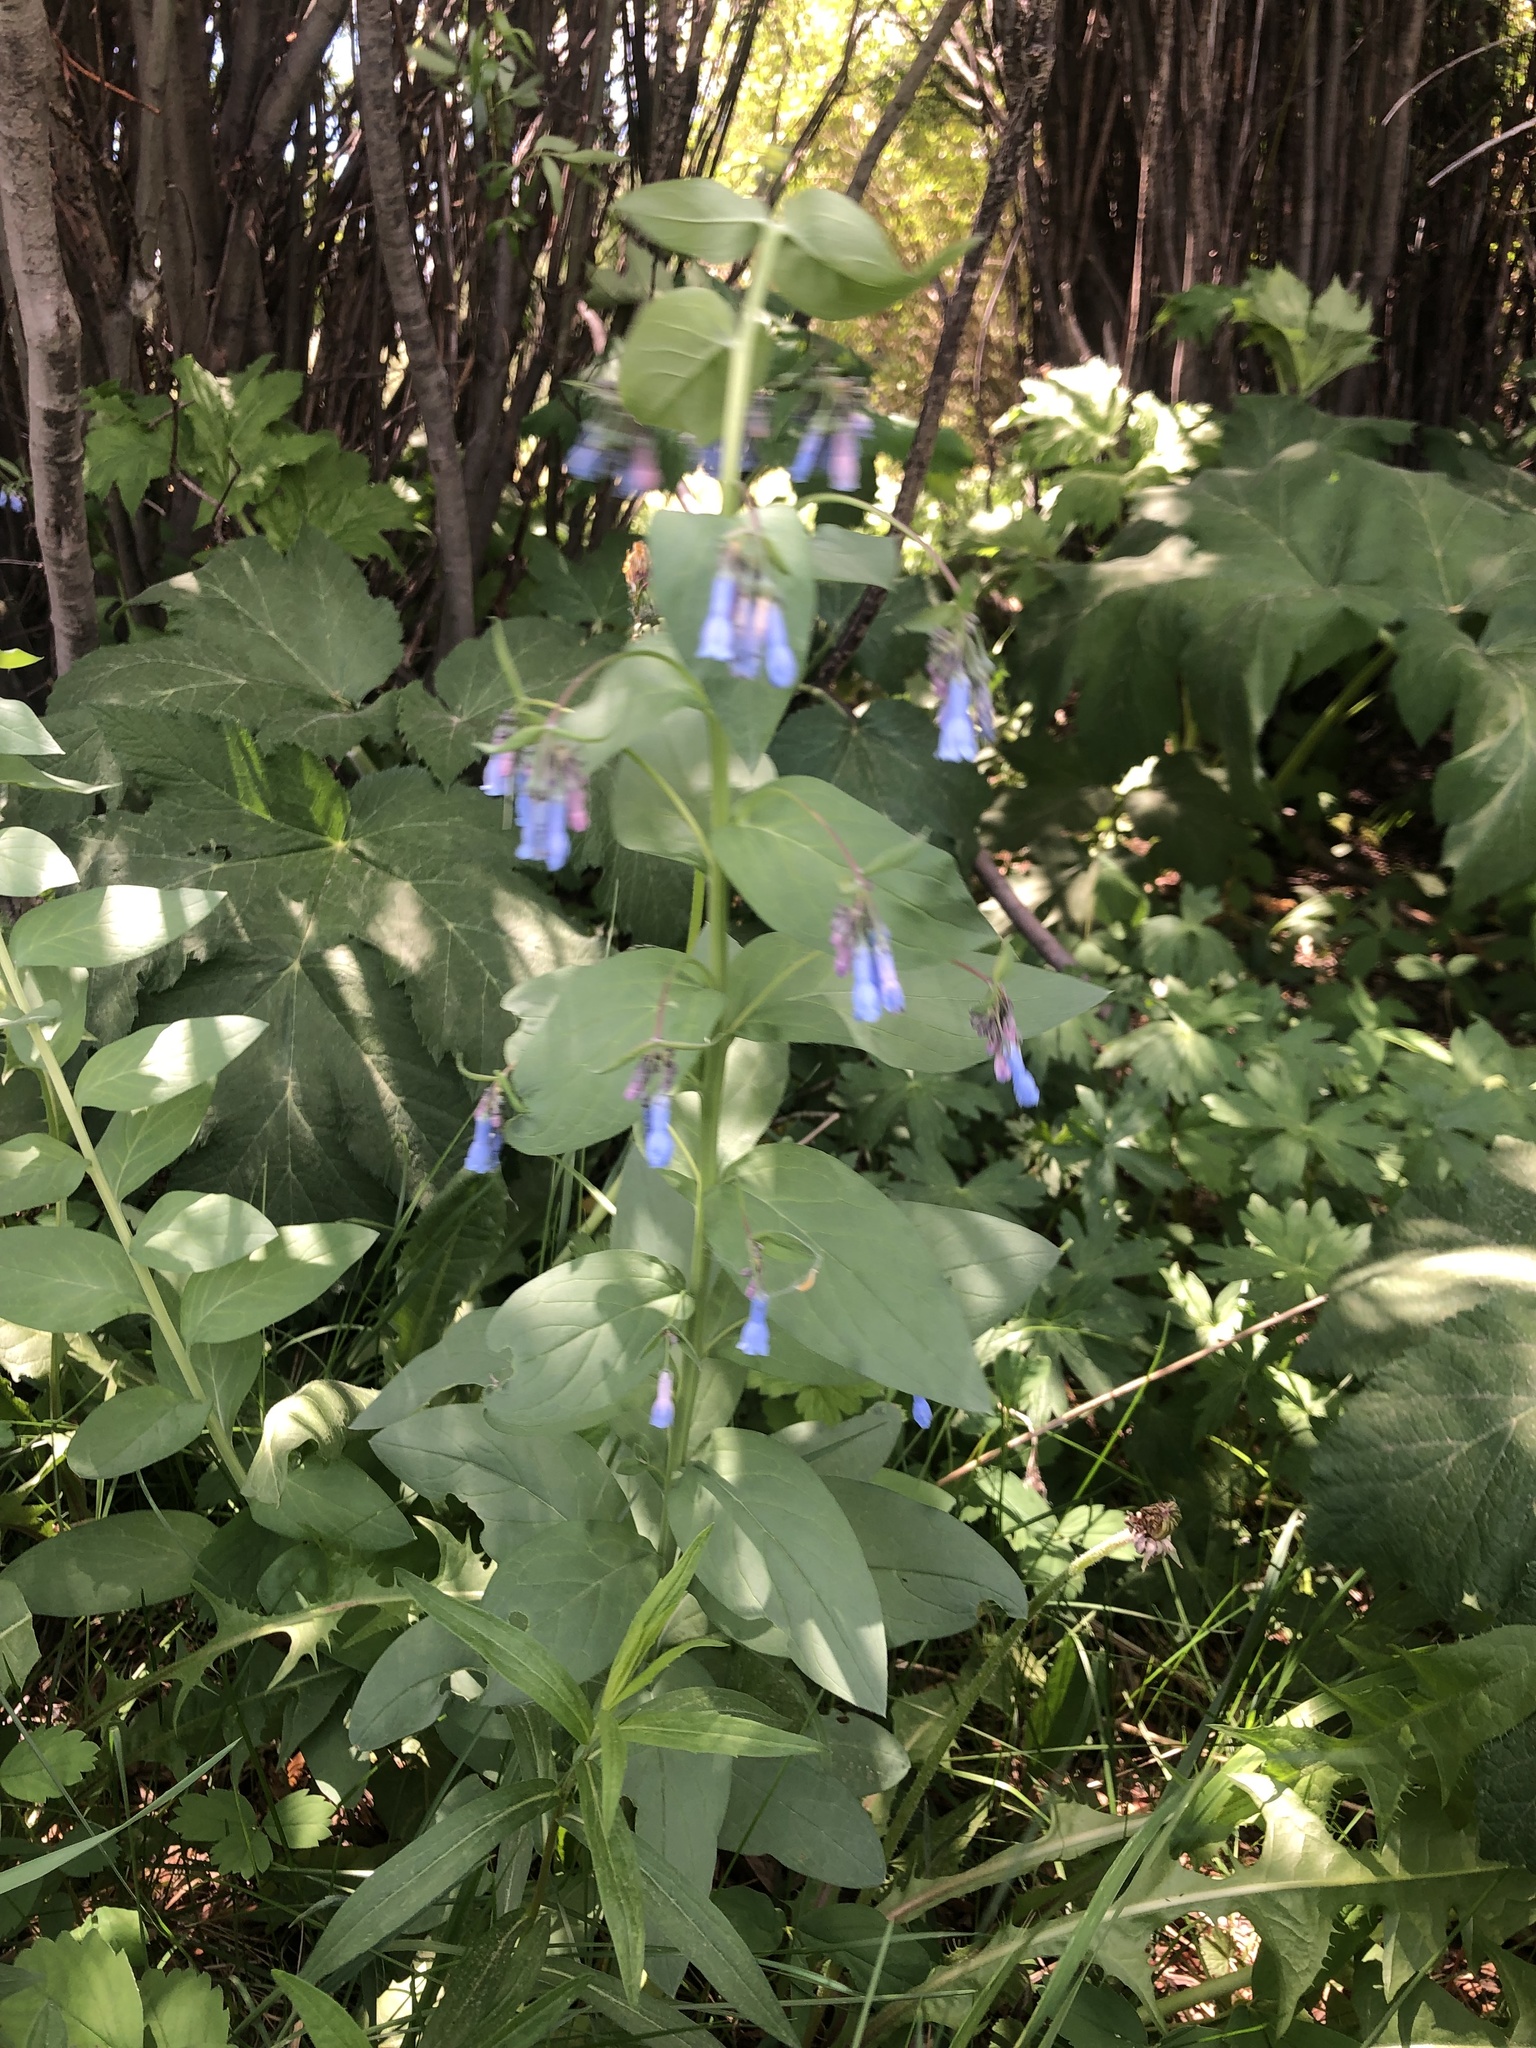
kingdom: Plantae
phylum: Tracheophyta
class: Magnoliopsida
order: Boraginales
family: Boraginaceae
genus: Mertensia
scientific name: Mertensia ciliata
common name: Tall chiming-bells
